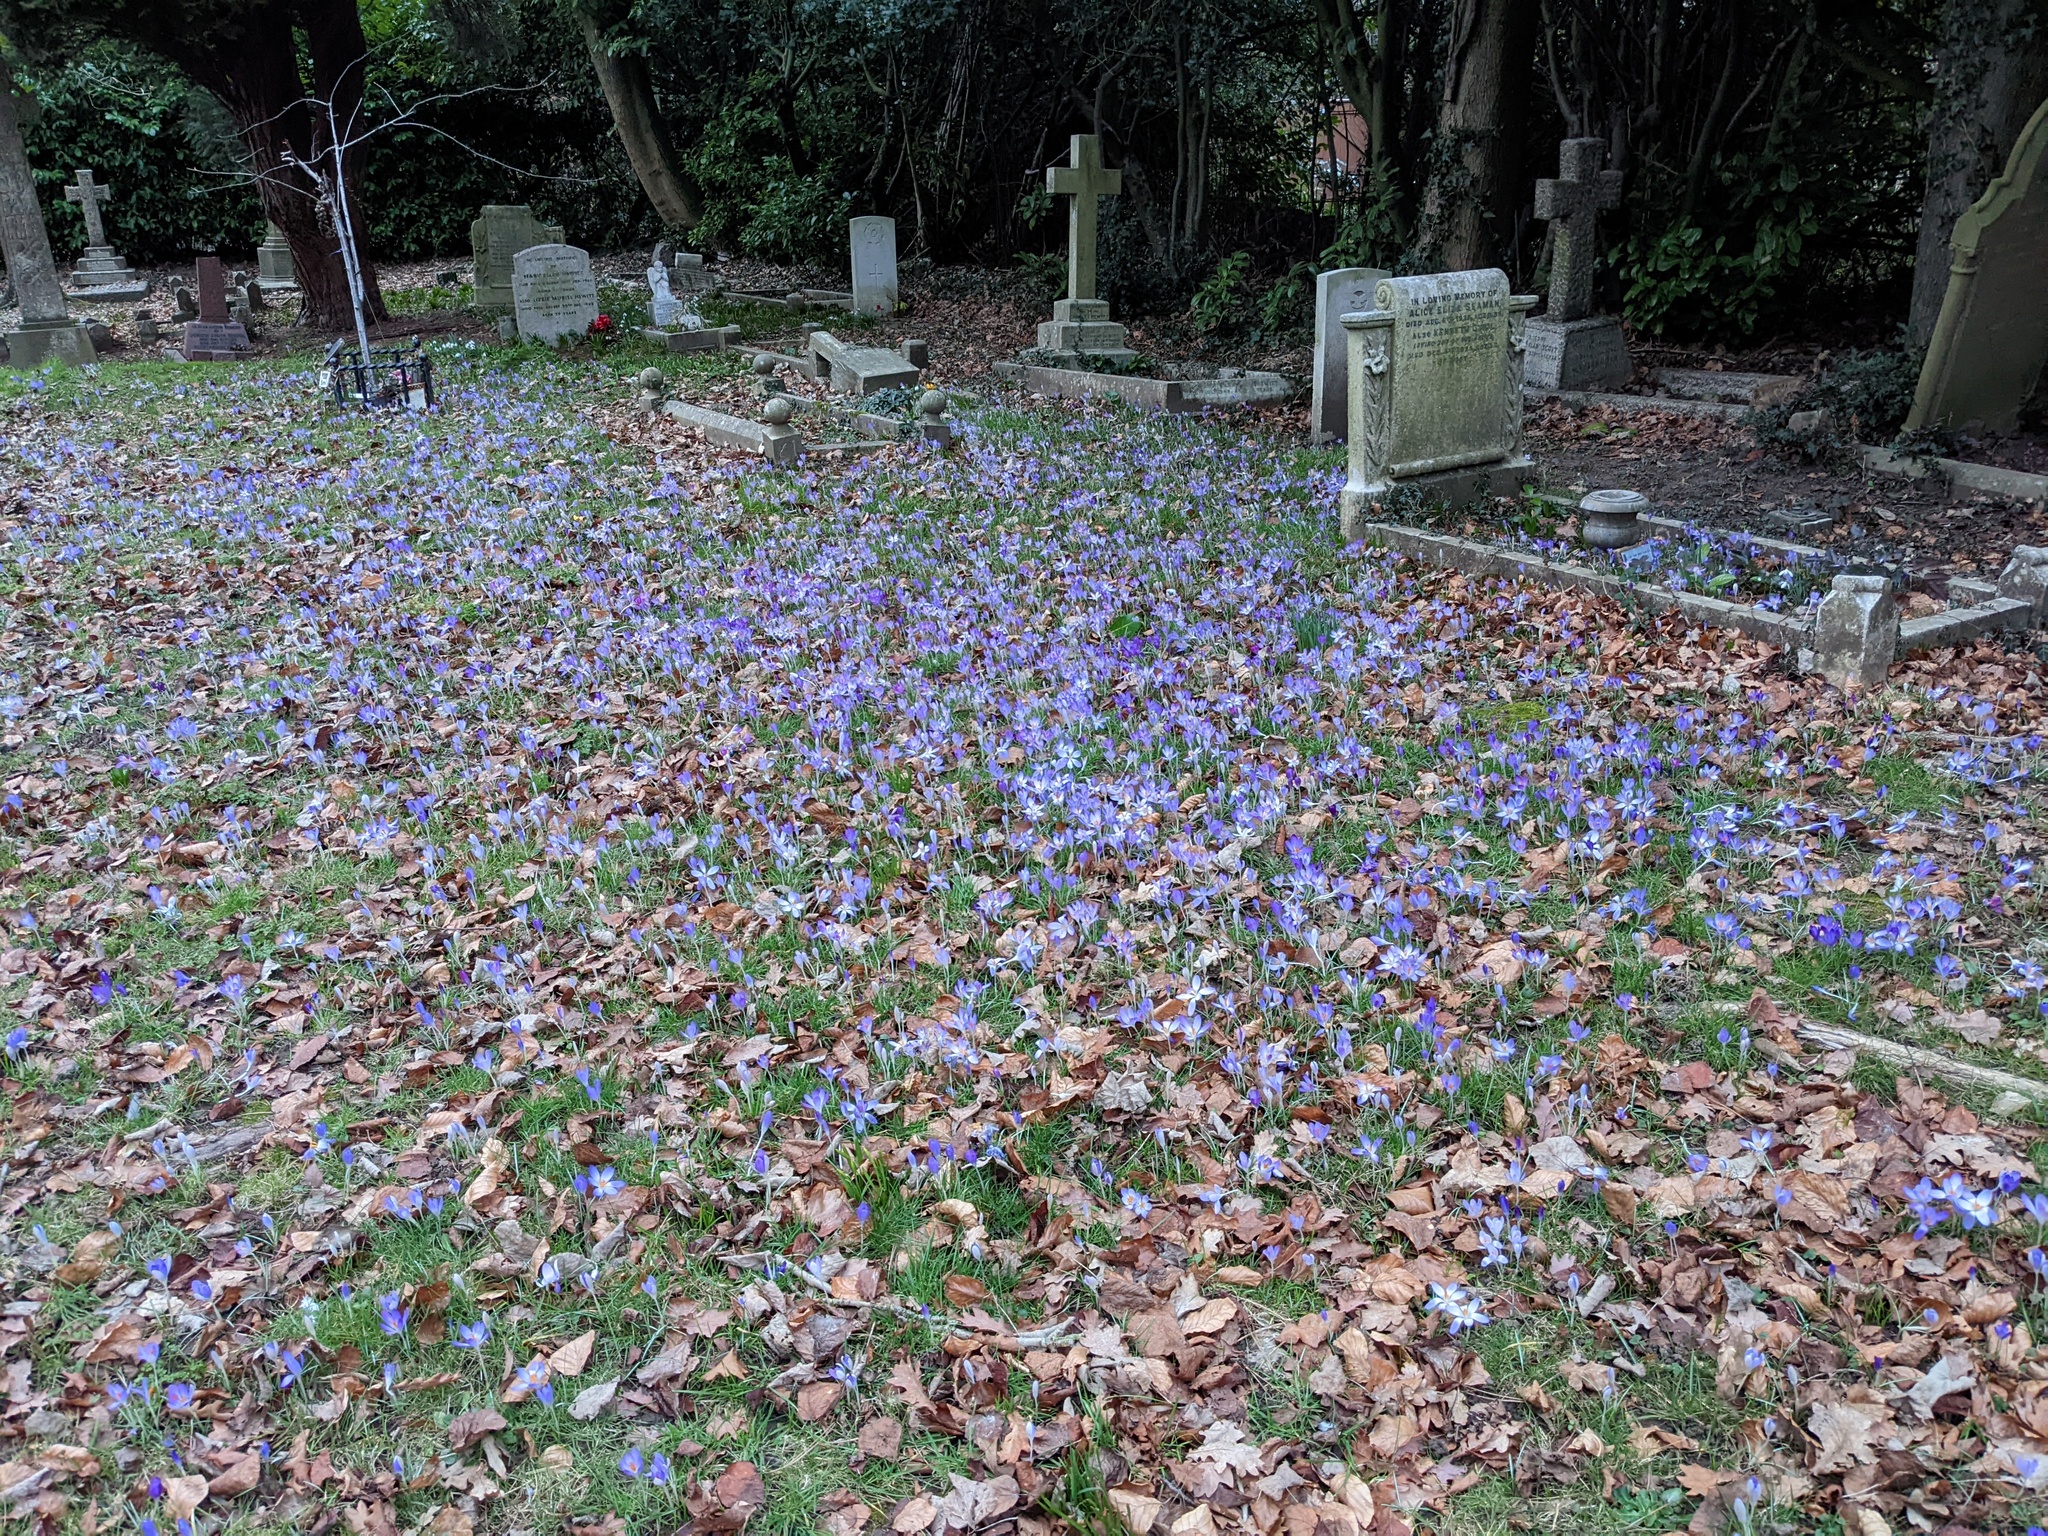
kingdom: Plantae
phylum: Tracheophyta
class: Liliopsida
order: Asparagales
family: Iridaceae
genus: Crocus
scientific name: Crocus tommasinianus
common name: Early crocus
